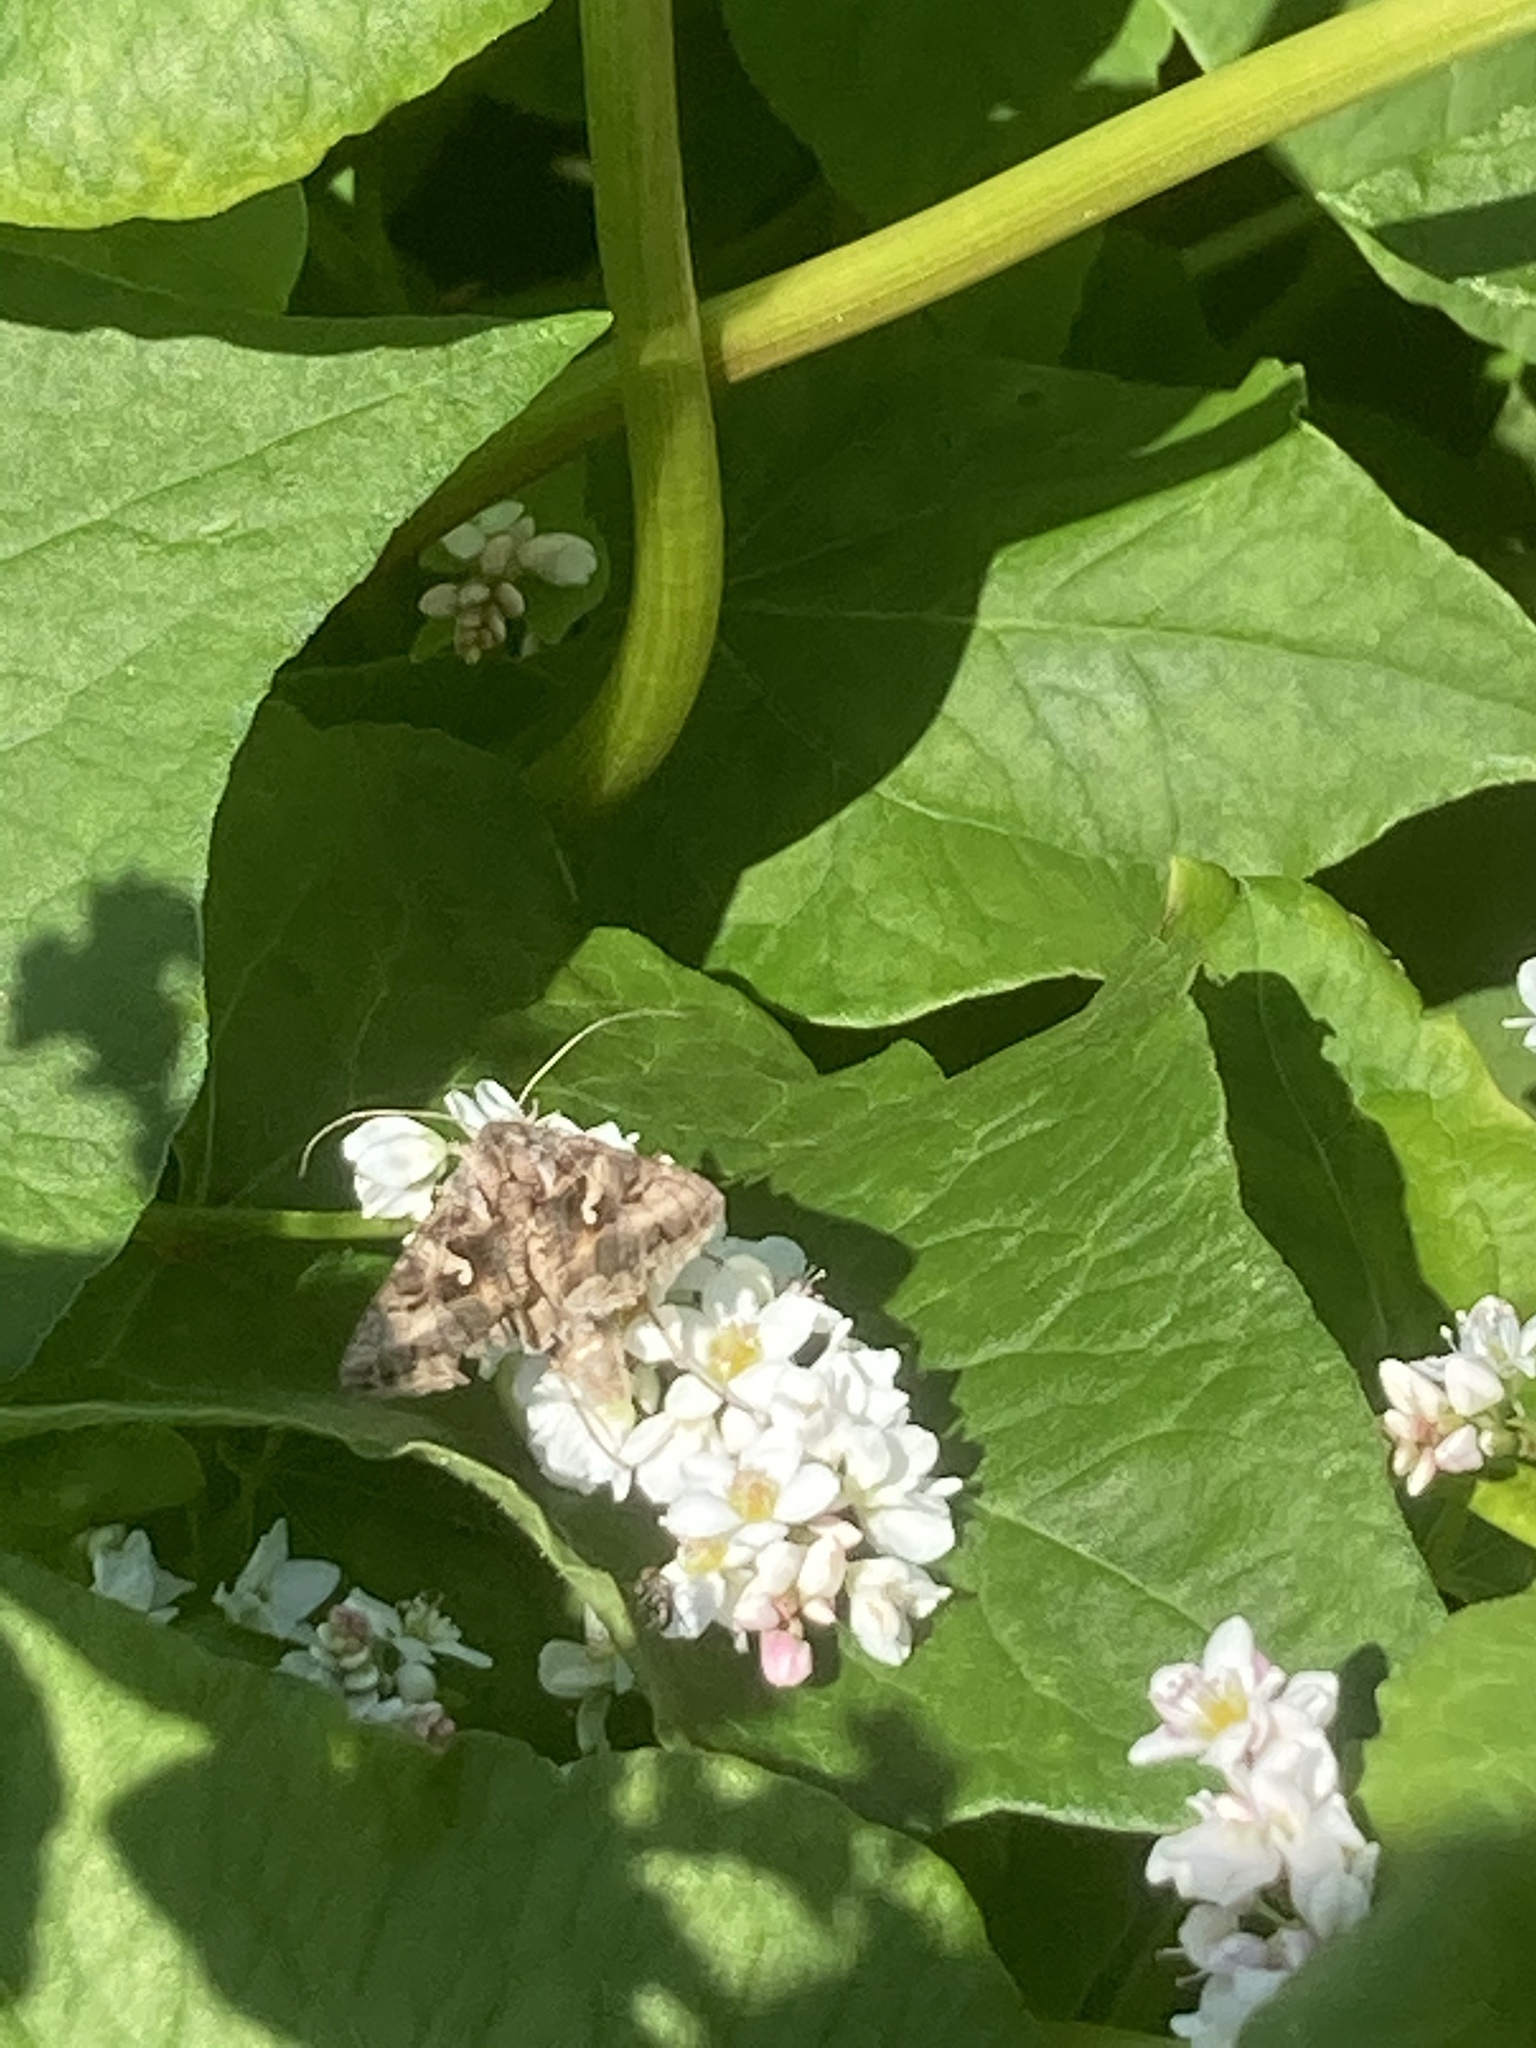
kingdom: Animalia
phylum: Arthropoda
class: Insecta
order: Lepidoptera
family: Noctuidae
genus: Autographa
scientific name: Autographa gamma
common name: Silver y
